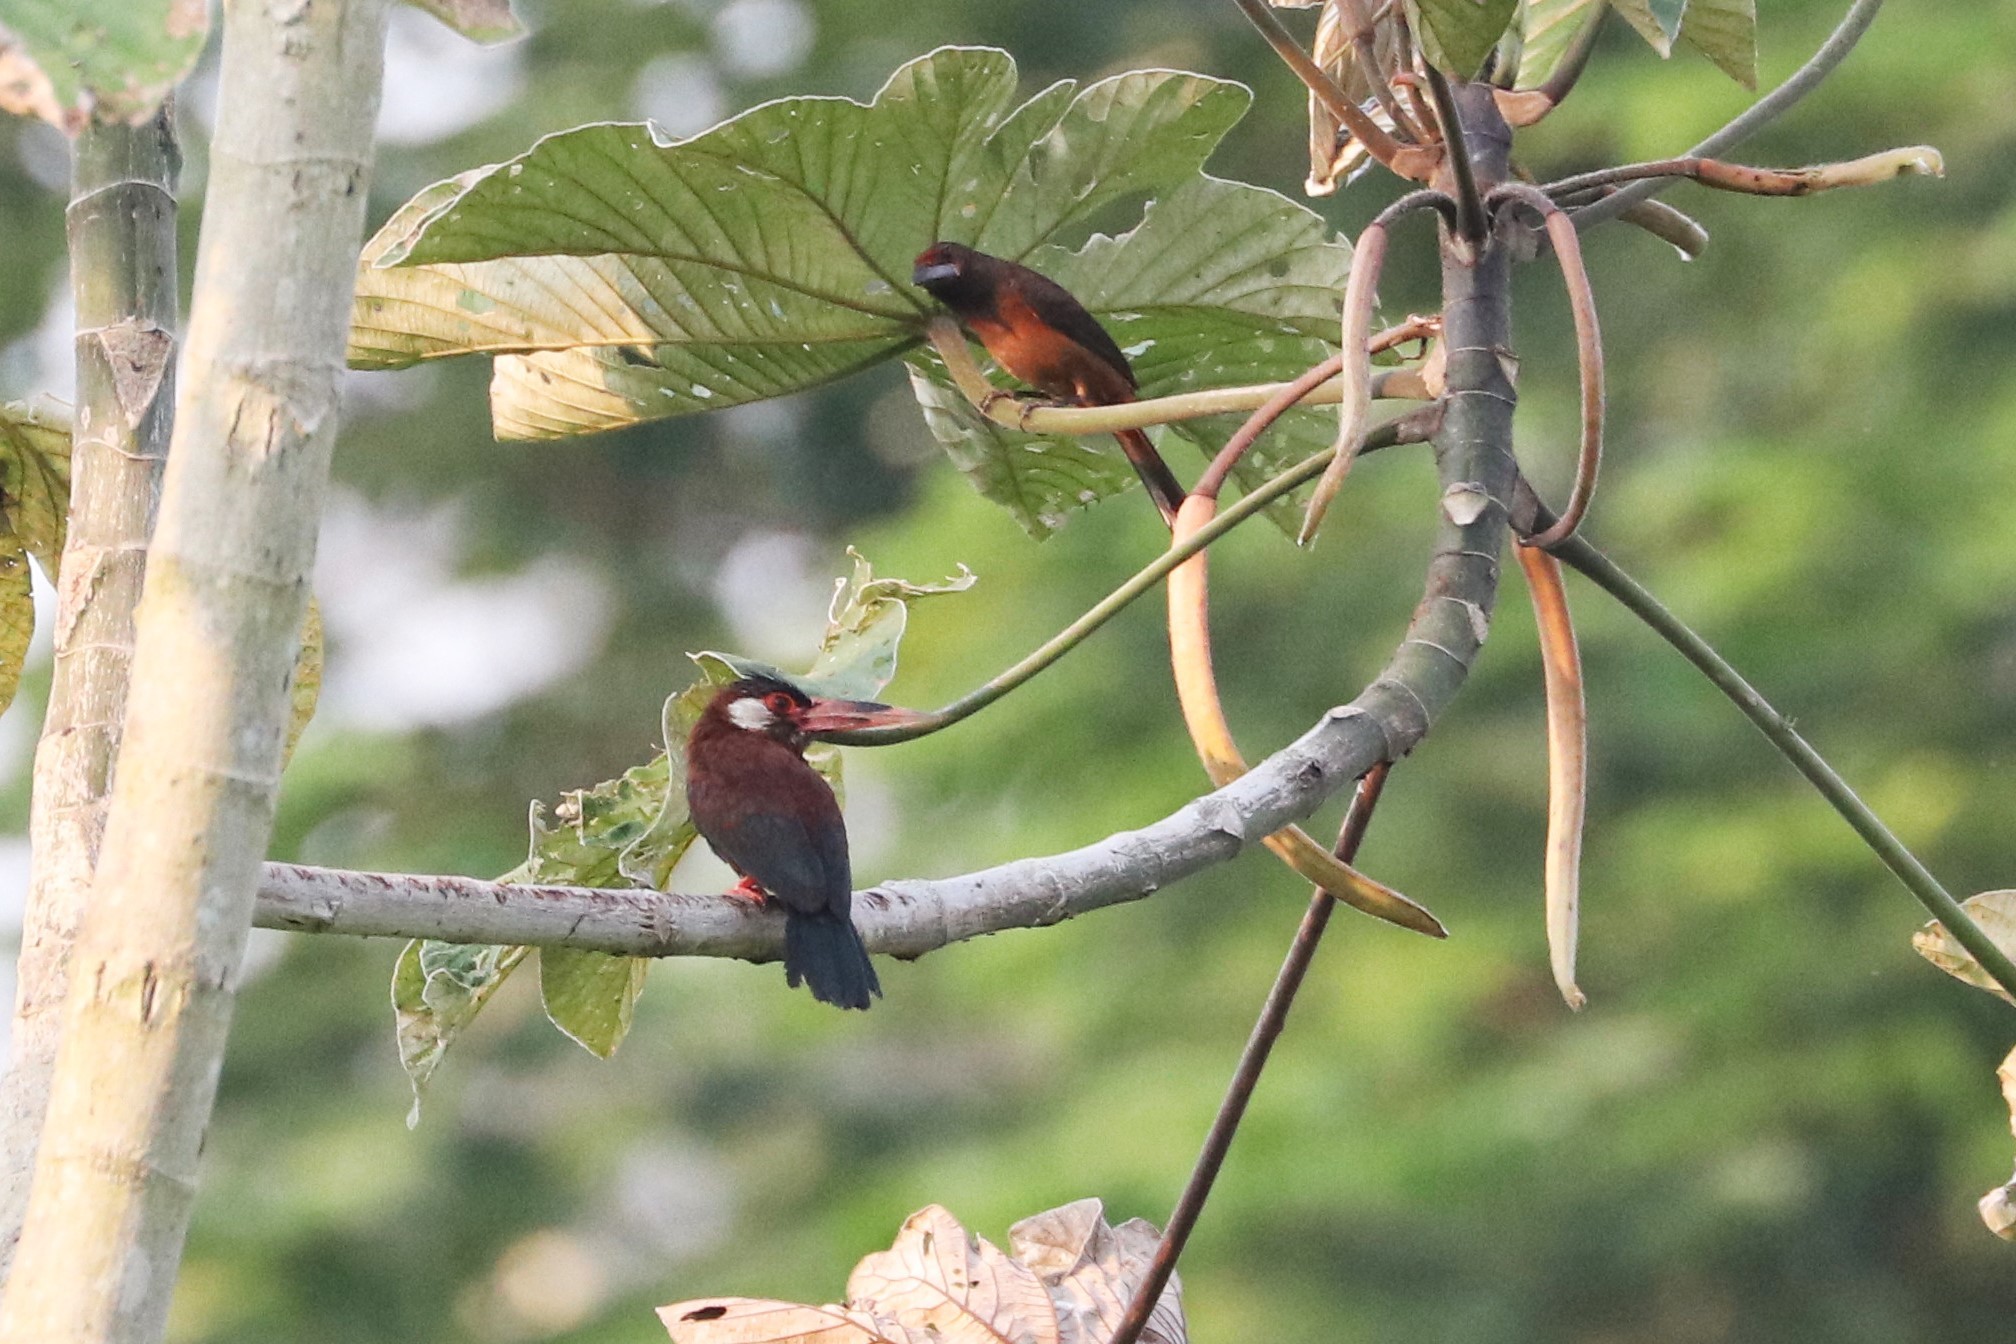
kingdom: Animalia
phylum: Chordata
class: Aves
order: Piciformes
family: Galbulidae
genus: Galbalcyrhynchus
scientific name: Galbalcyrhynchus leucotis
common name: White-eared jacamar
